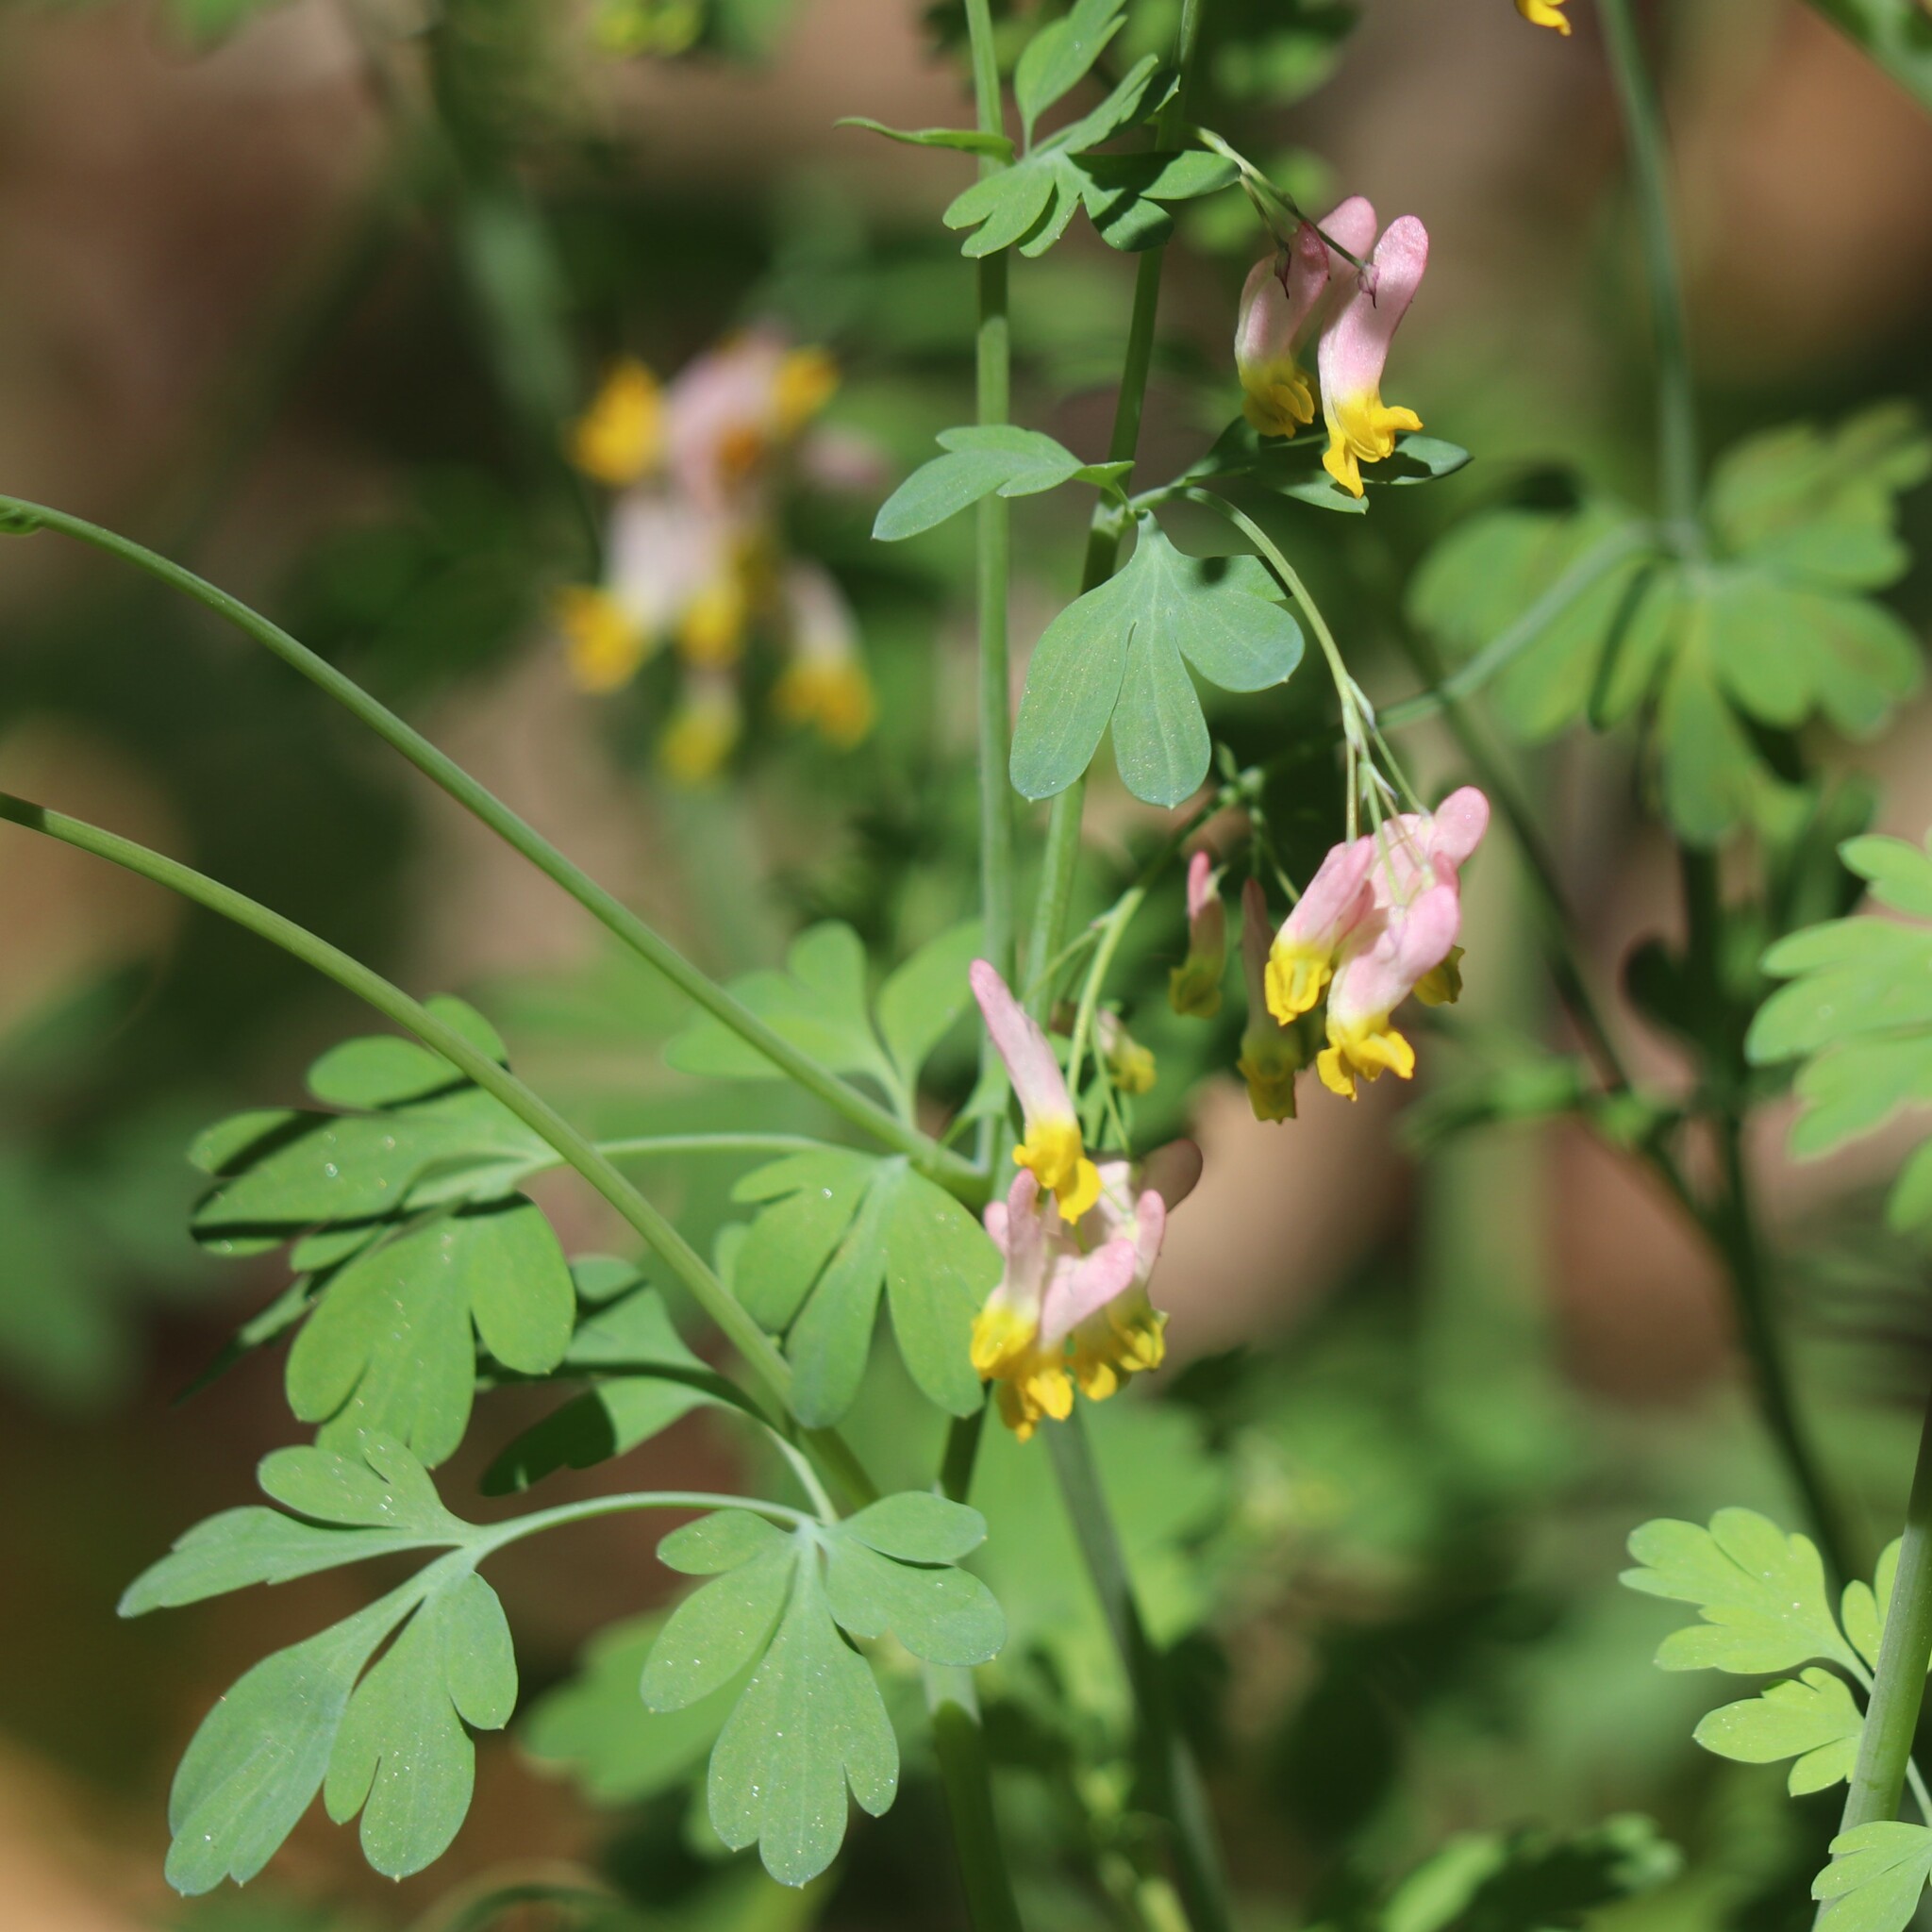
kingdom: Plantae
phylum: Tracheophyta
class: Magnoliopsida
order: Ranunculales
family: Papaveraceae
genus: Capnoides
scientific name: Capnoides sempervirens
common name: Rock harlequin
